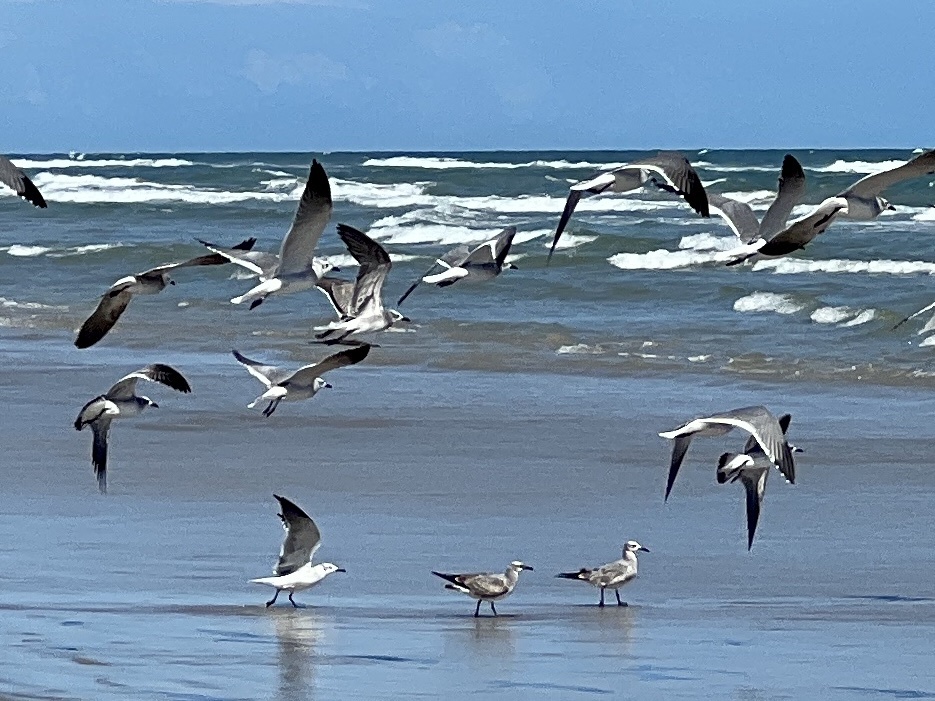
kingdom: Animalia
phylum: Chordata
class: Aves
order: Charadriiformes
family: Laridae
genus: Leucophaeus
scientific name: Leucophaeus atricilla
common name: Laughing gull
